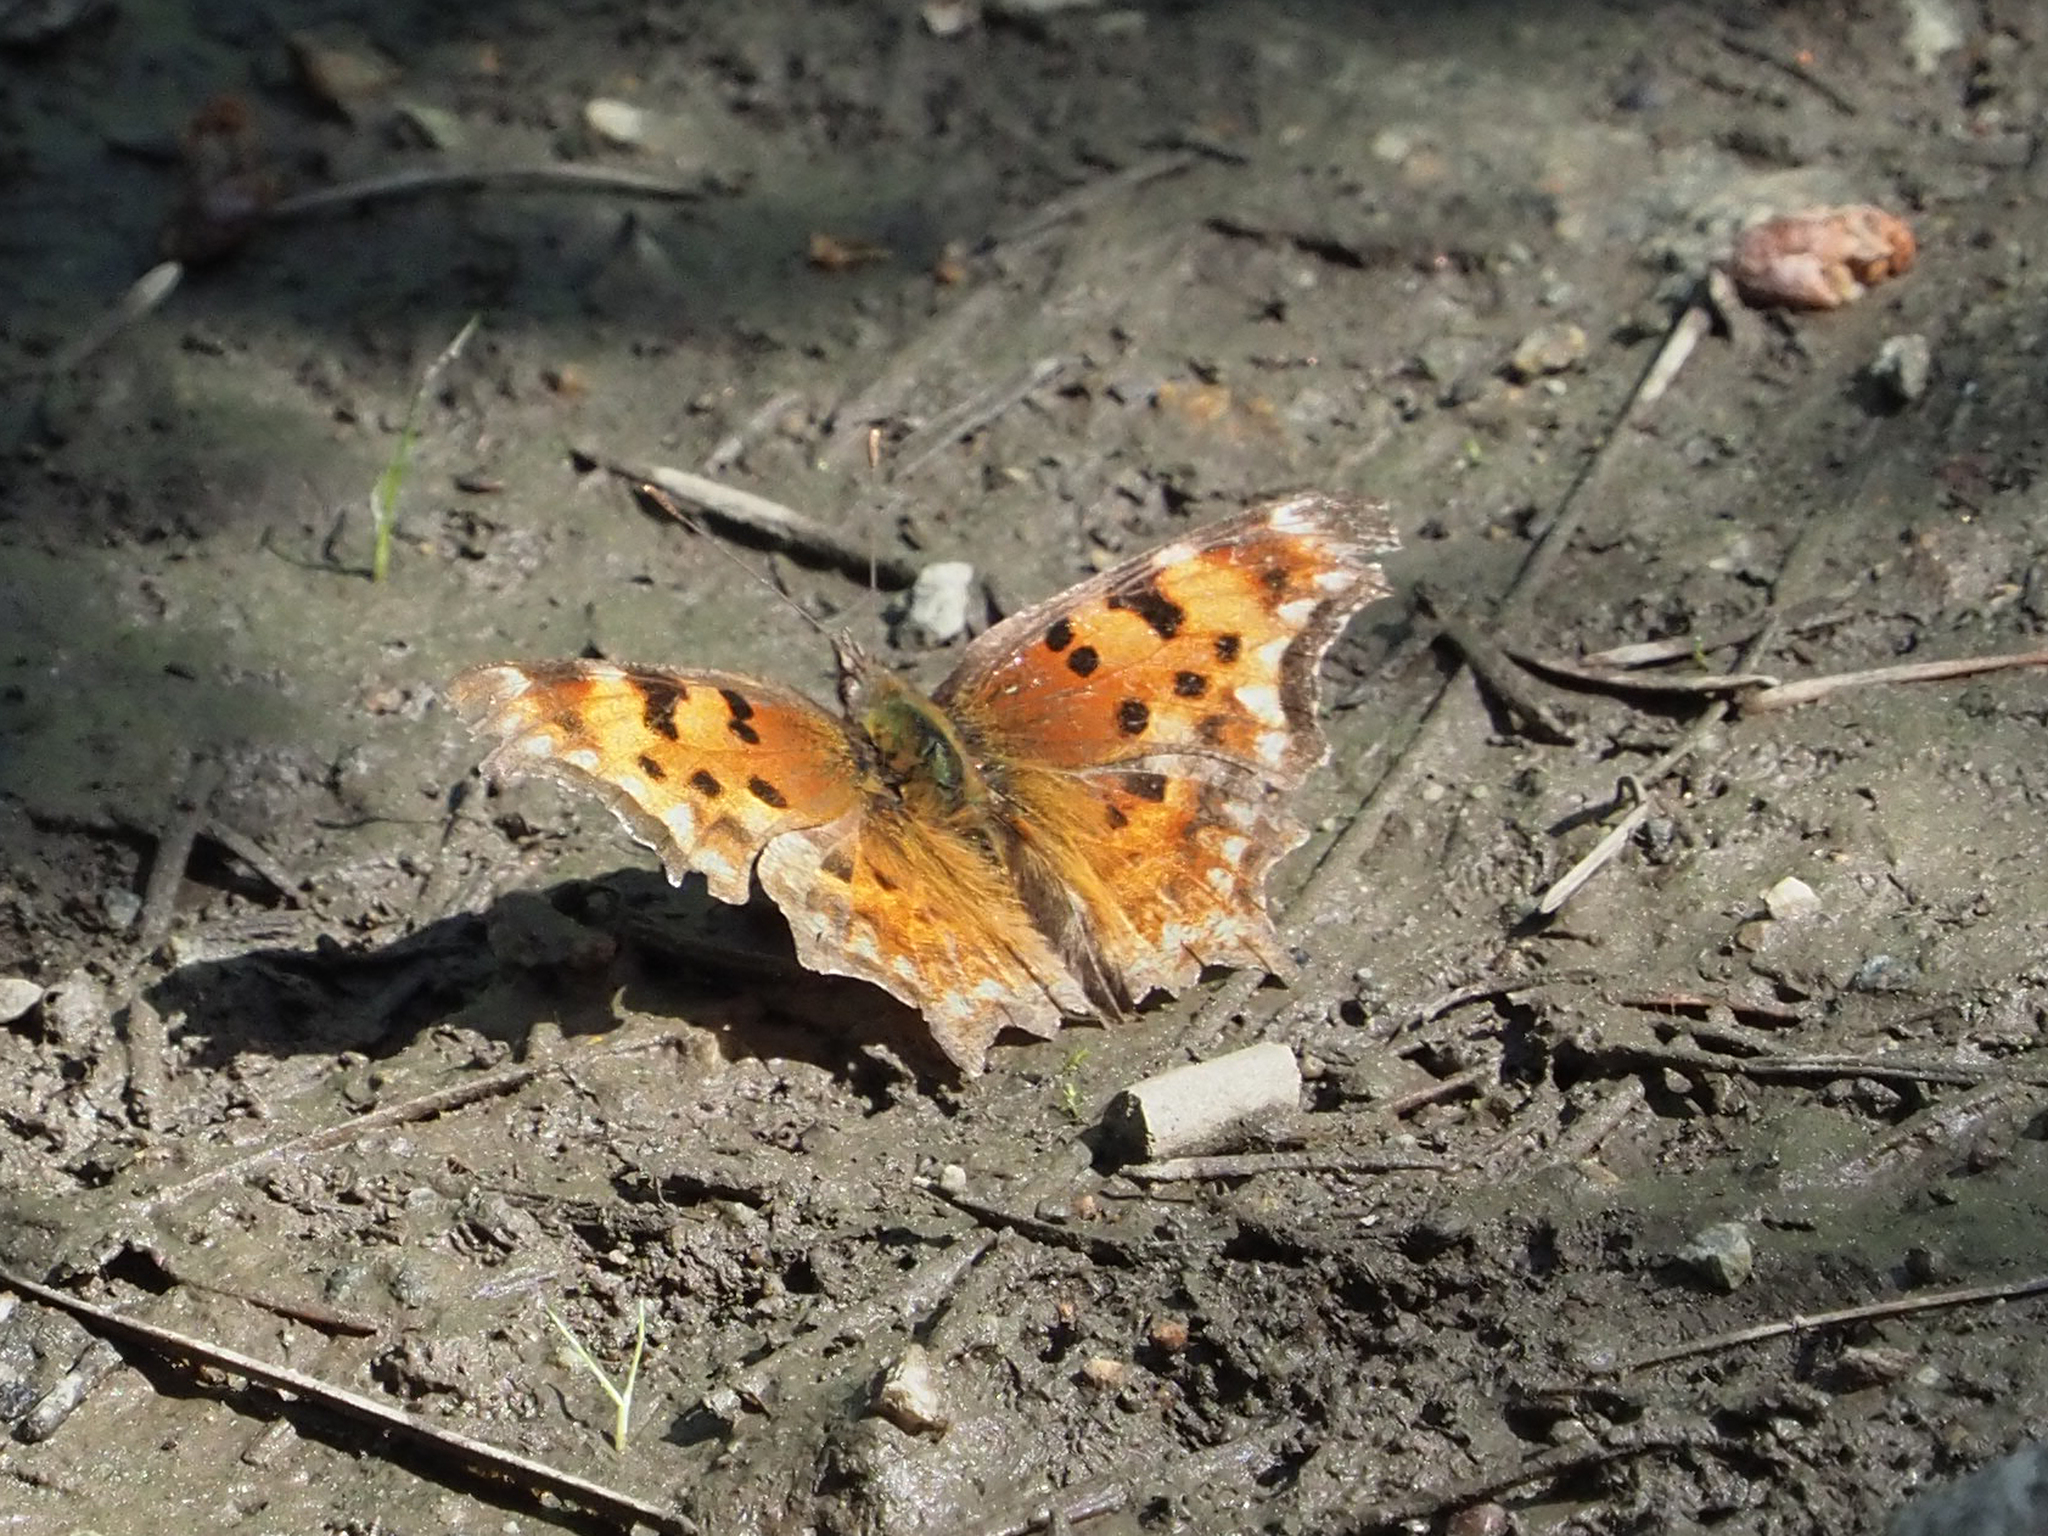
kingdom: Animalia
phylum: Arthropoda
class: Insecta
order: Lepidoptera
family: Nymphalidae
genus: Polygonia
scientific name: Polygonia gracilis
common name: Hoary comma
